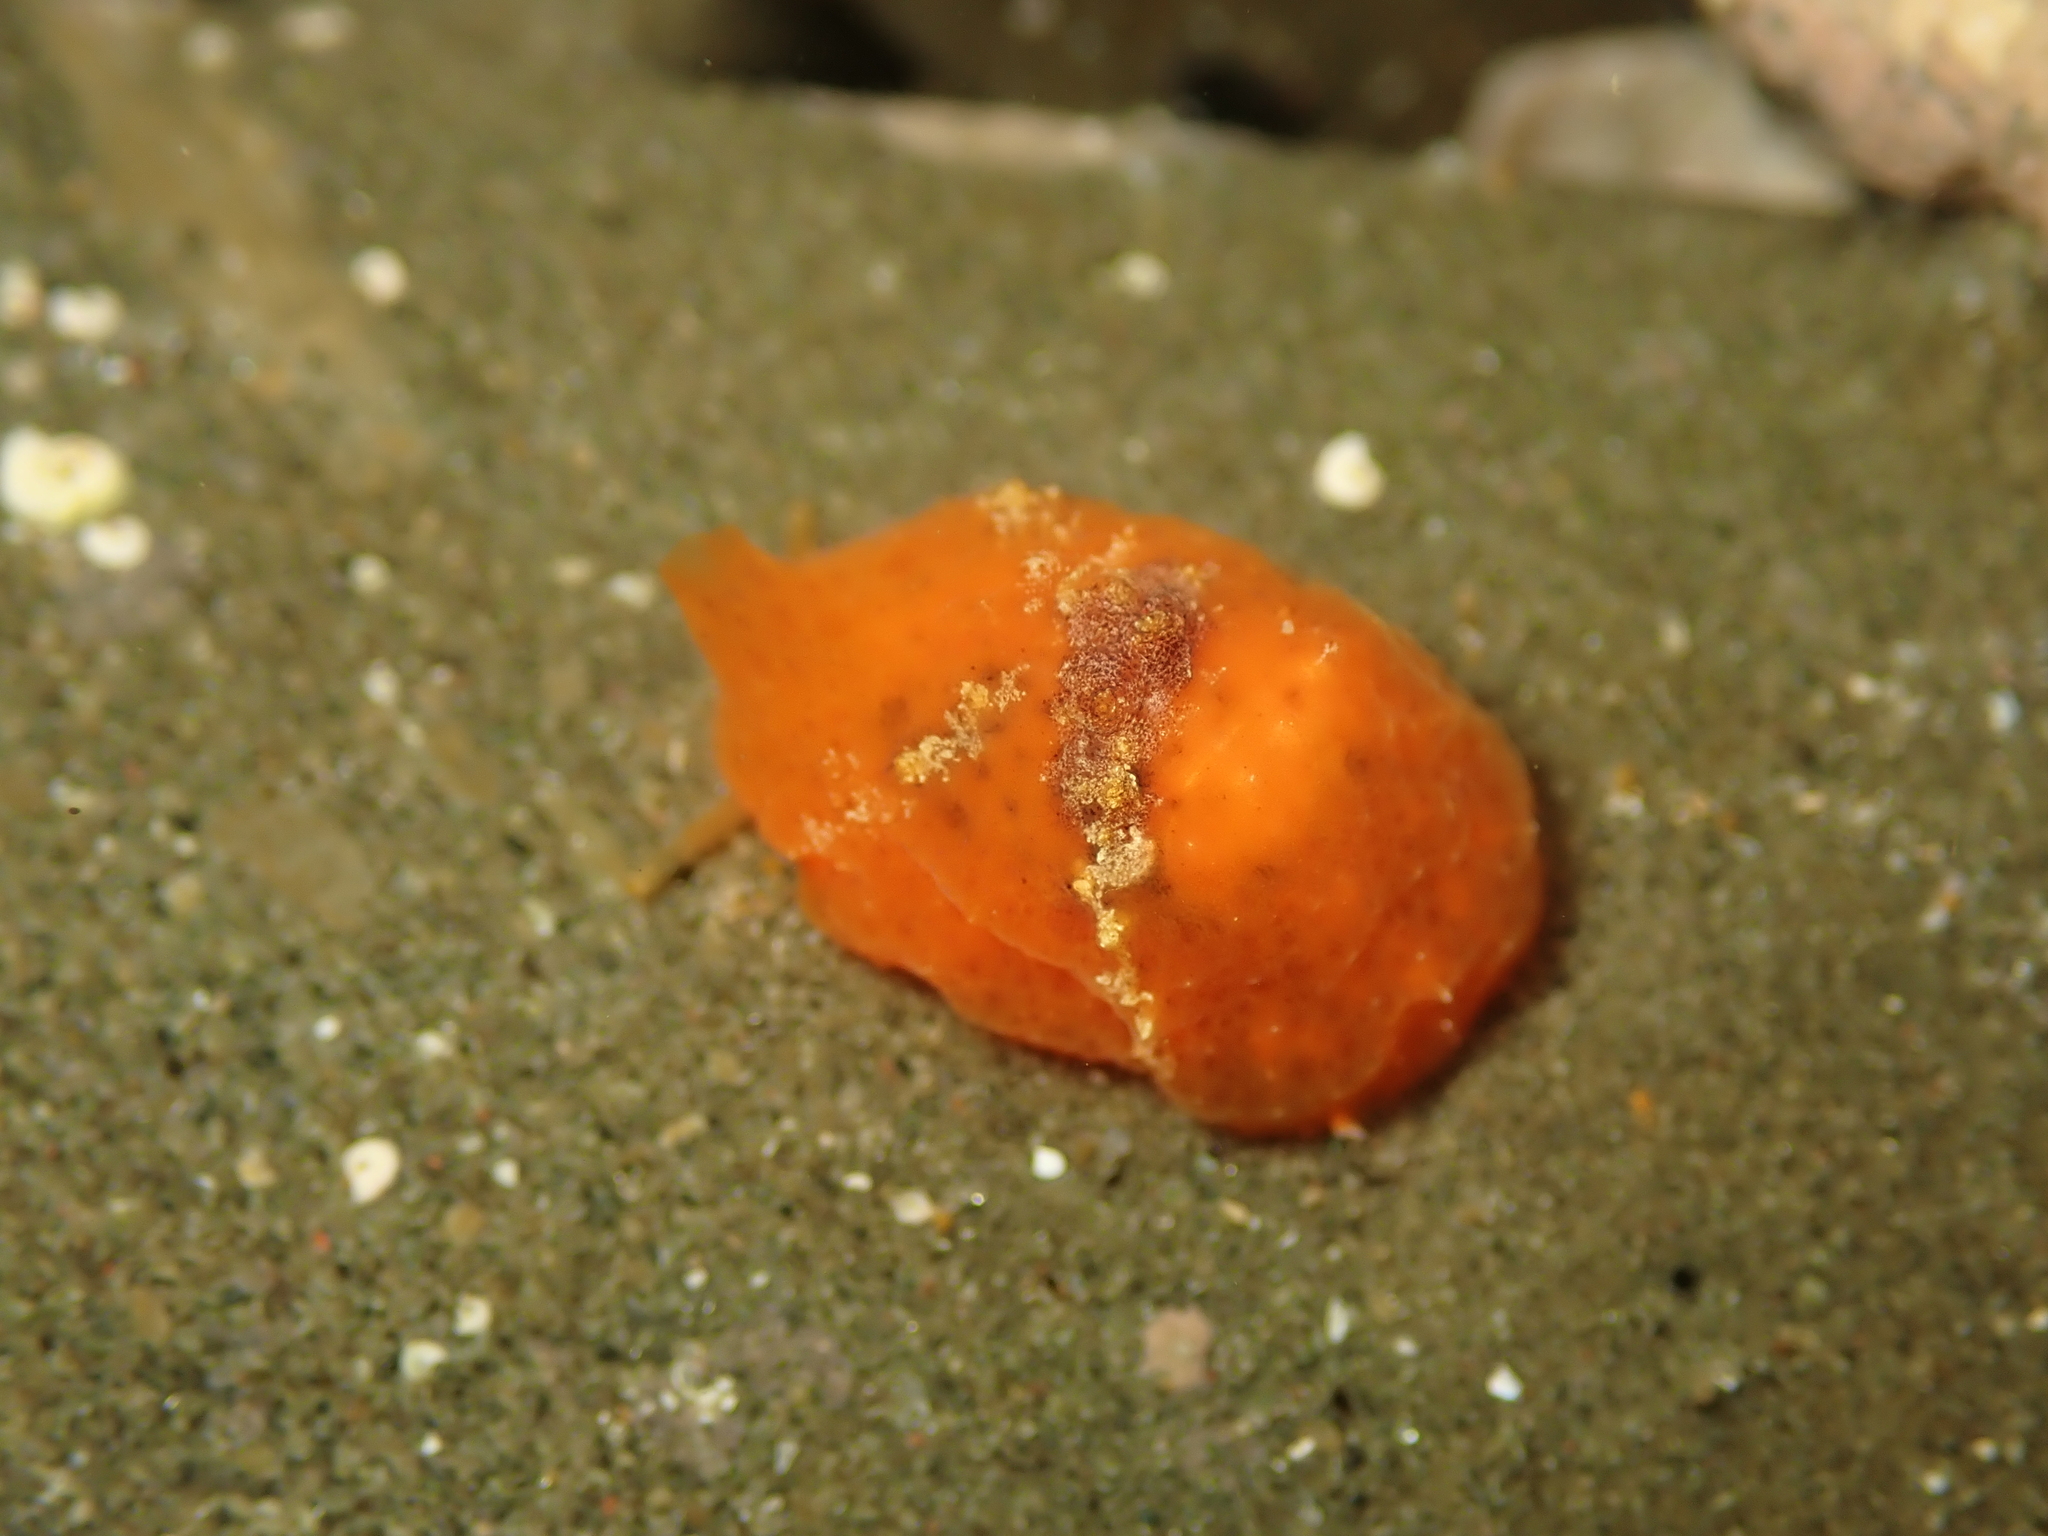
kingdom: Animalia
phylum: Mollusca
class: Gastropoda
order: Littorinimorpha
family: Velutinidae
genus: Lamellaria
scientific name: Lamellaria ophione
